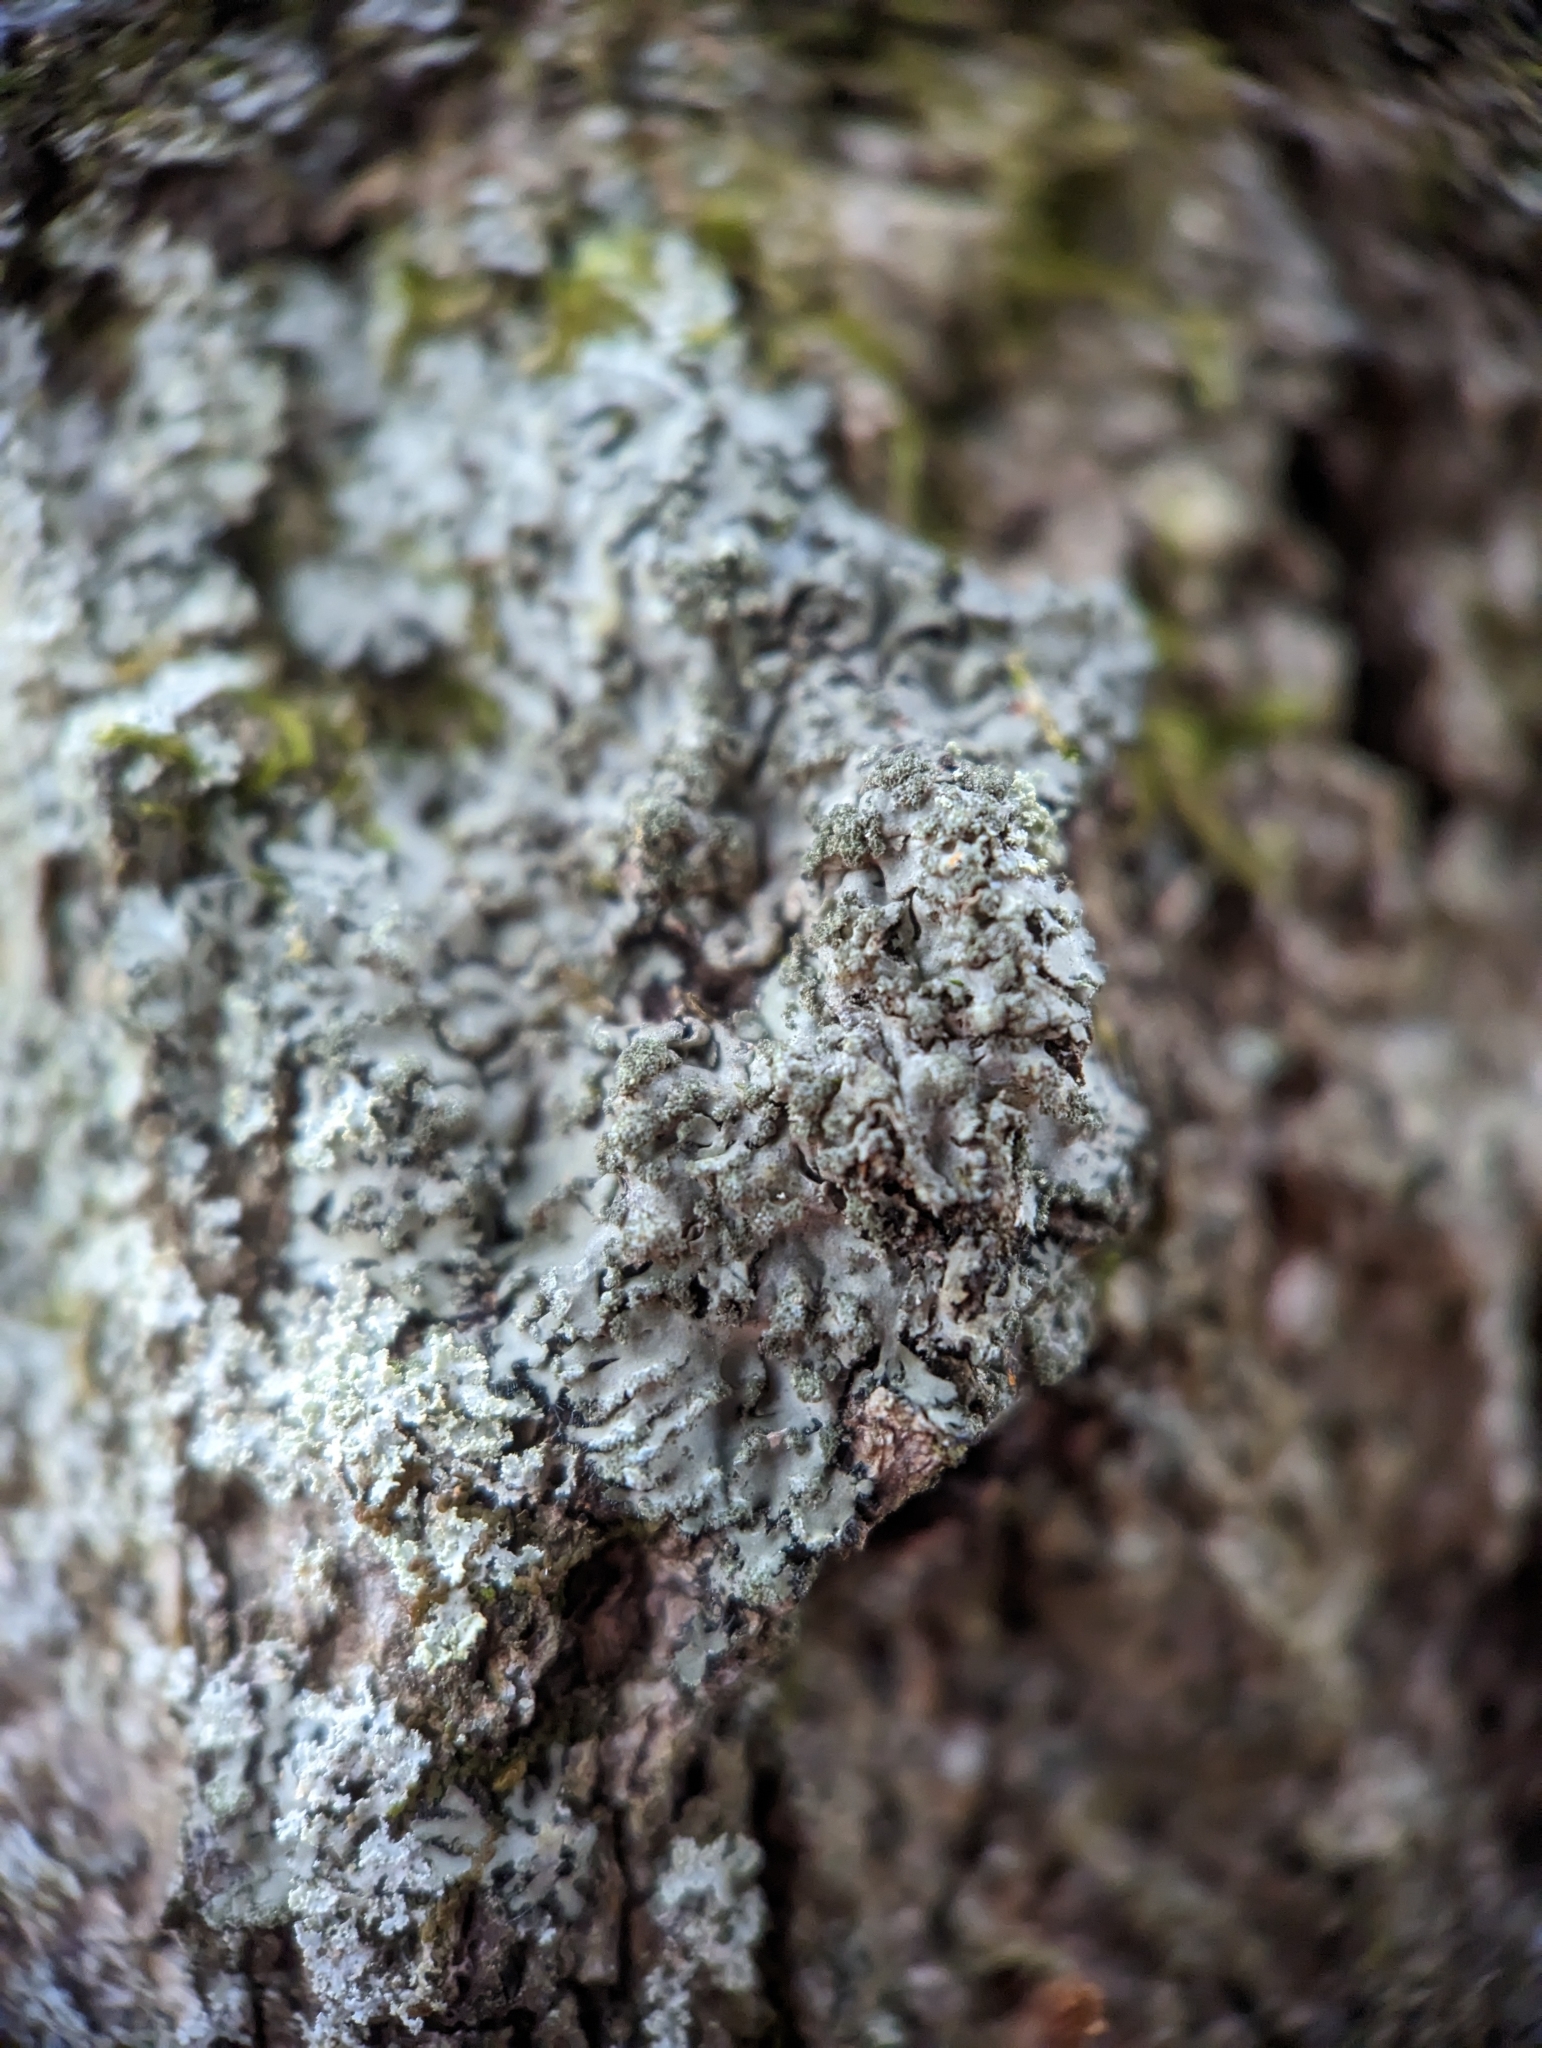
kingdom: Fungi
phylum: Ascomycota
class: Lecanoromycetes
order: Caliciales
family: Physciaceae
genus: Phaeophyscia
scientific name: Phaeophyscia rubropulchra
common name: Orange-cored shadow lichen
